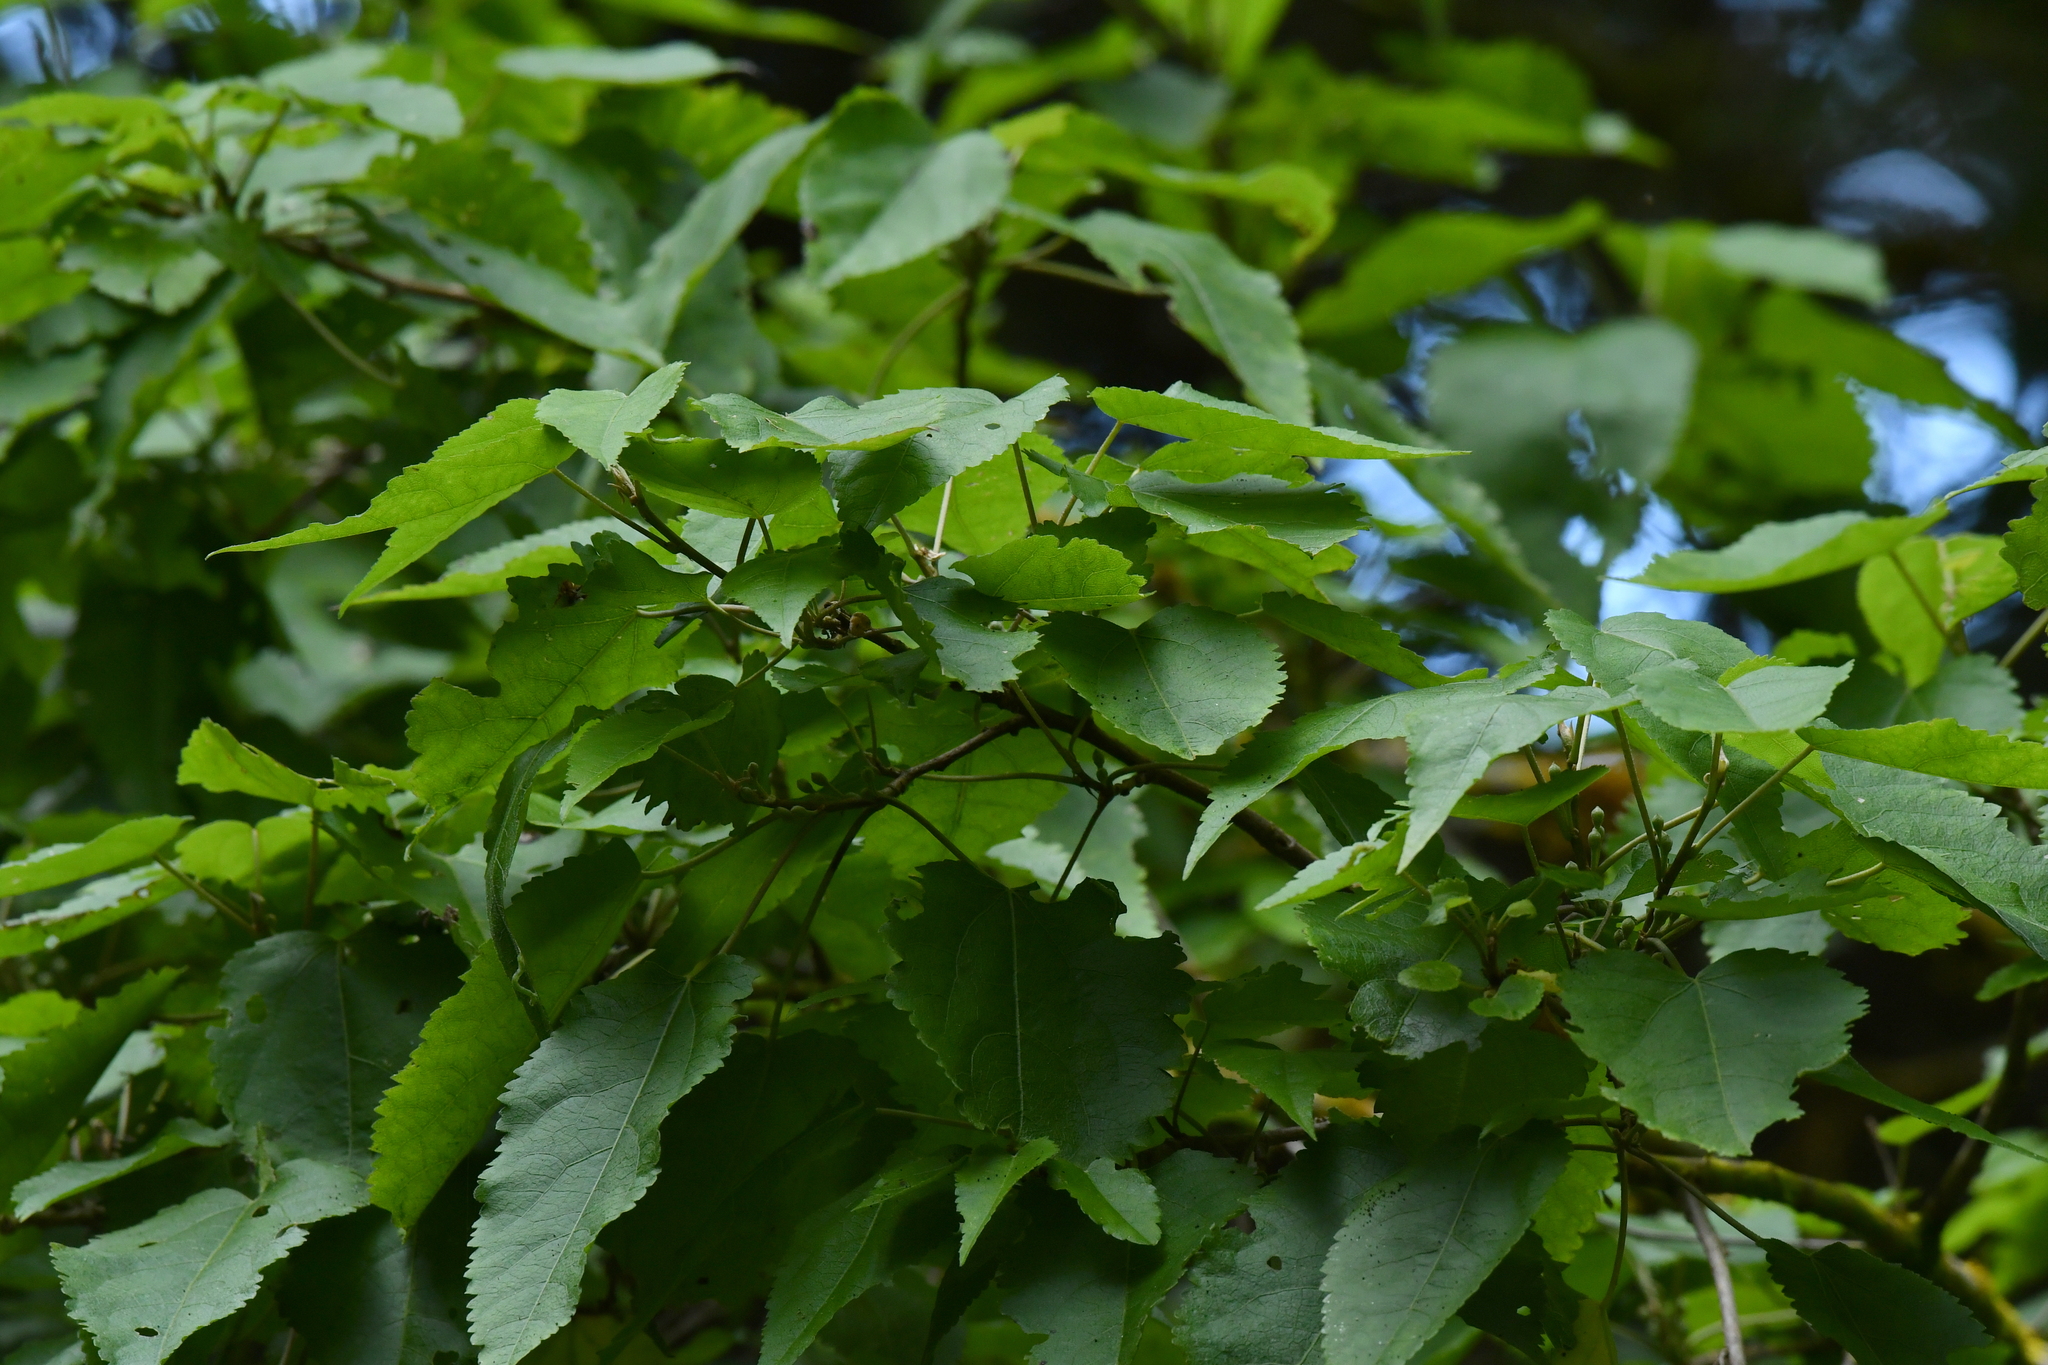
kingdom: Plantae
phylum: Tracheophyta
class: Magnoliopsida
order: Malvales
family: Malvaceae
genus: Hoheria
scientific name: Hoheria glabrata
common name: Mountain-ribbon
